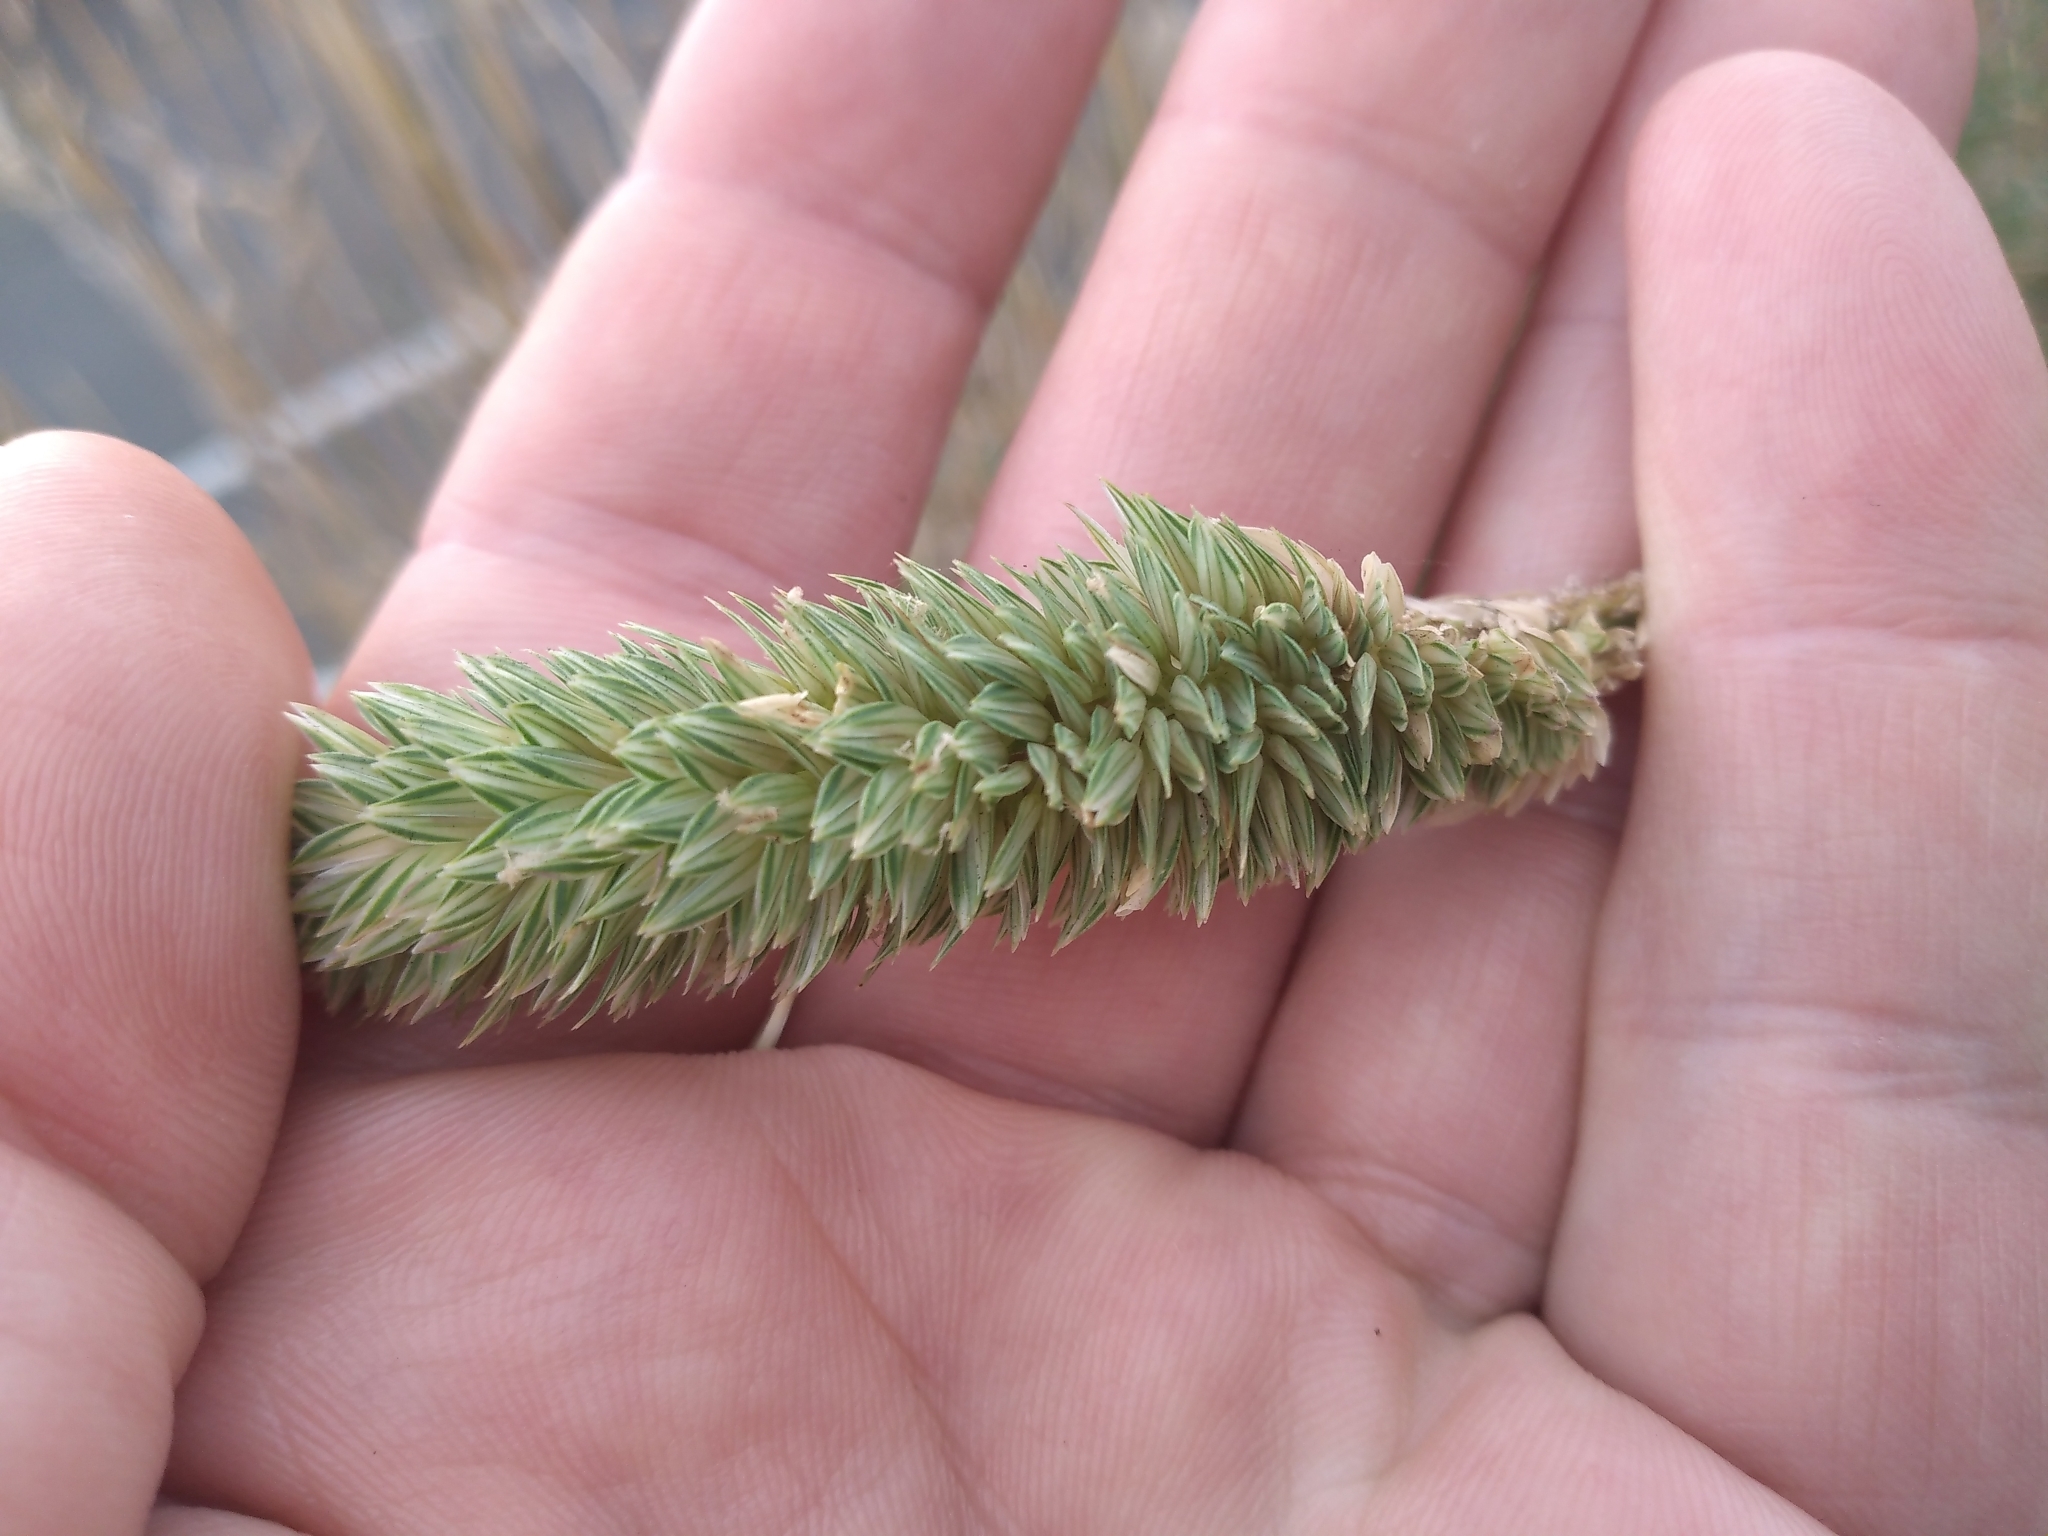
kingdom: Plantae
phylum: Tracheophyta
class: Liliopsida
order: Poales
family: Poaceae
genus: Phalaris
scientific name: Phalaris aquatica
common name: Bulbous canary-grass
